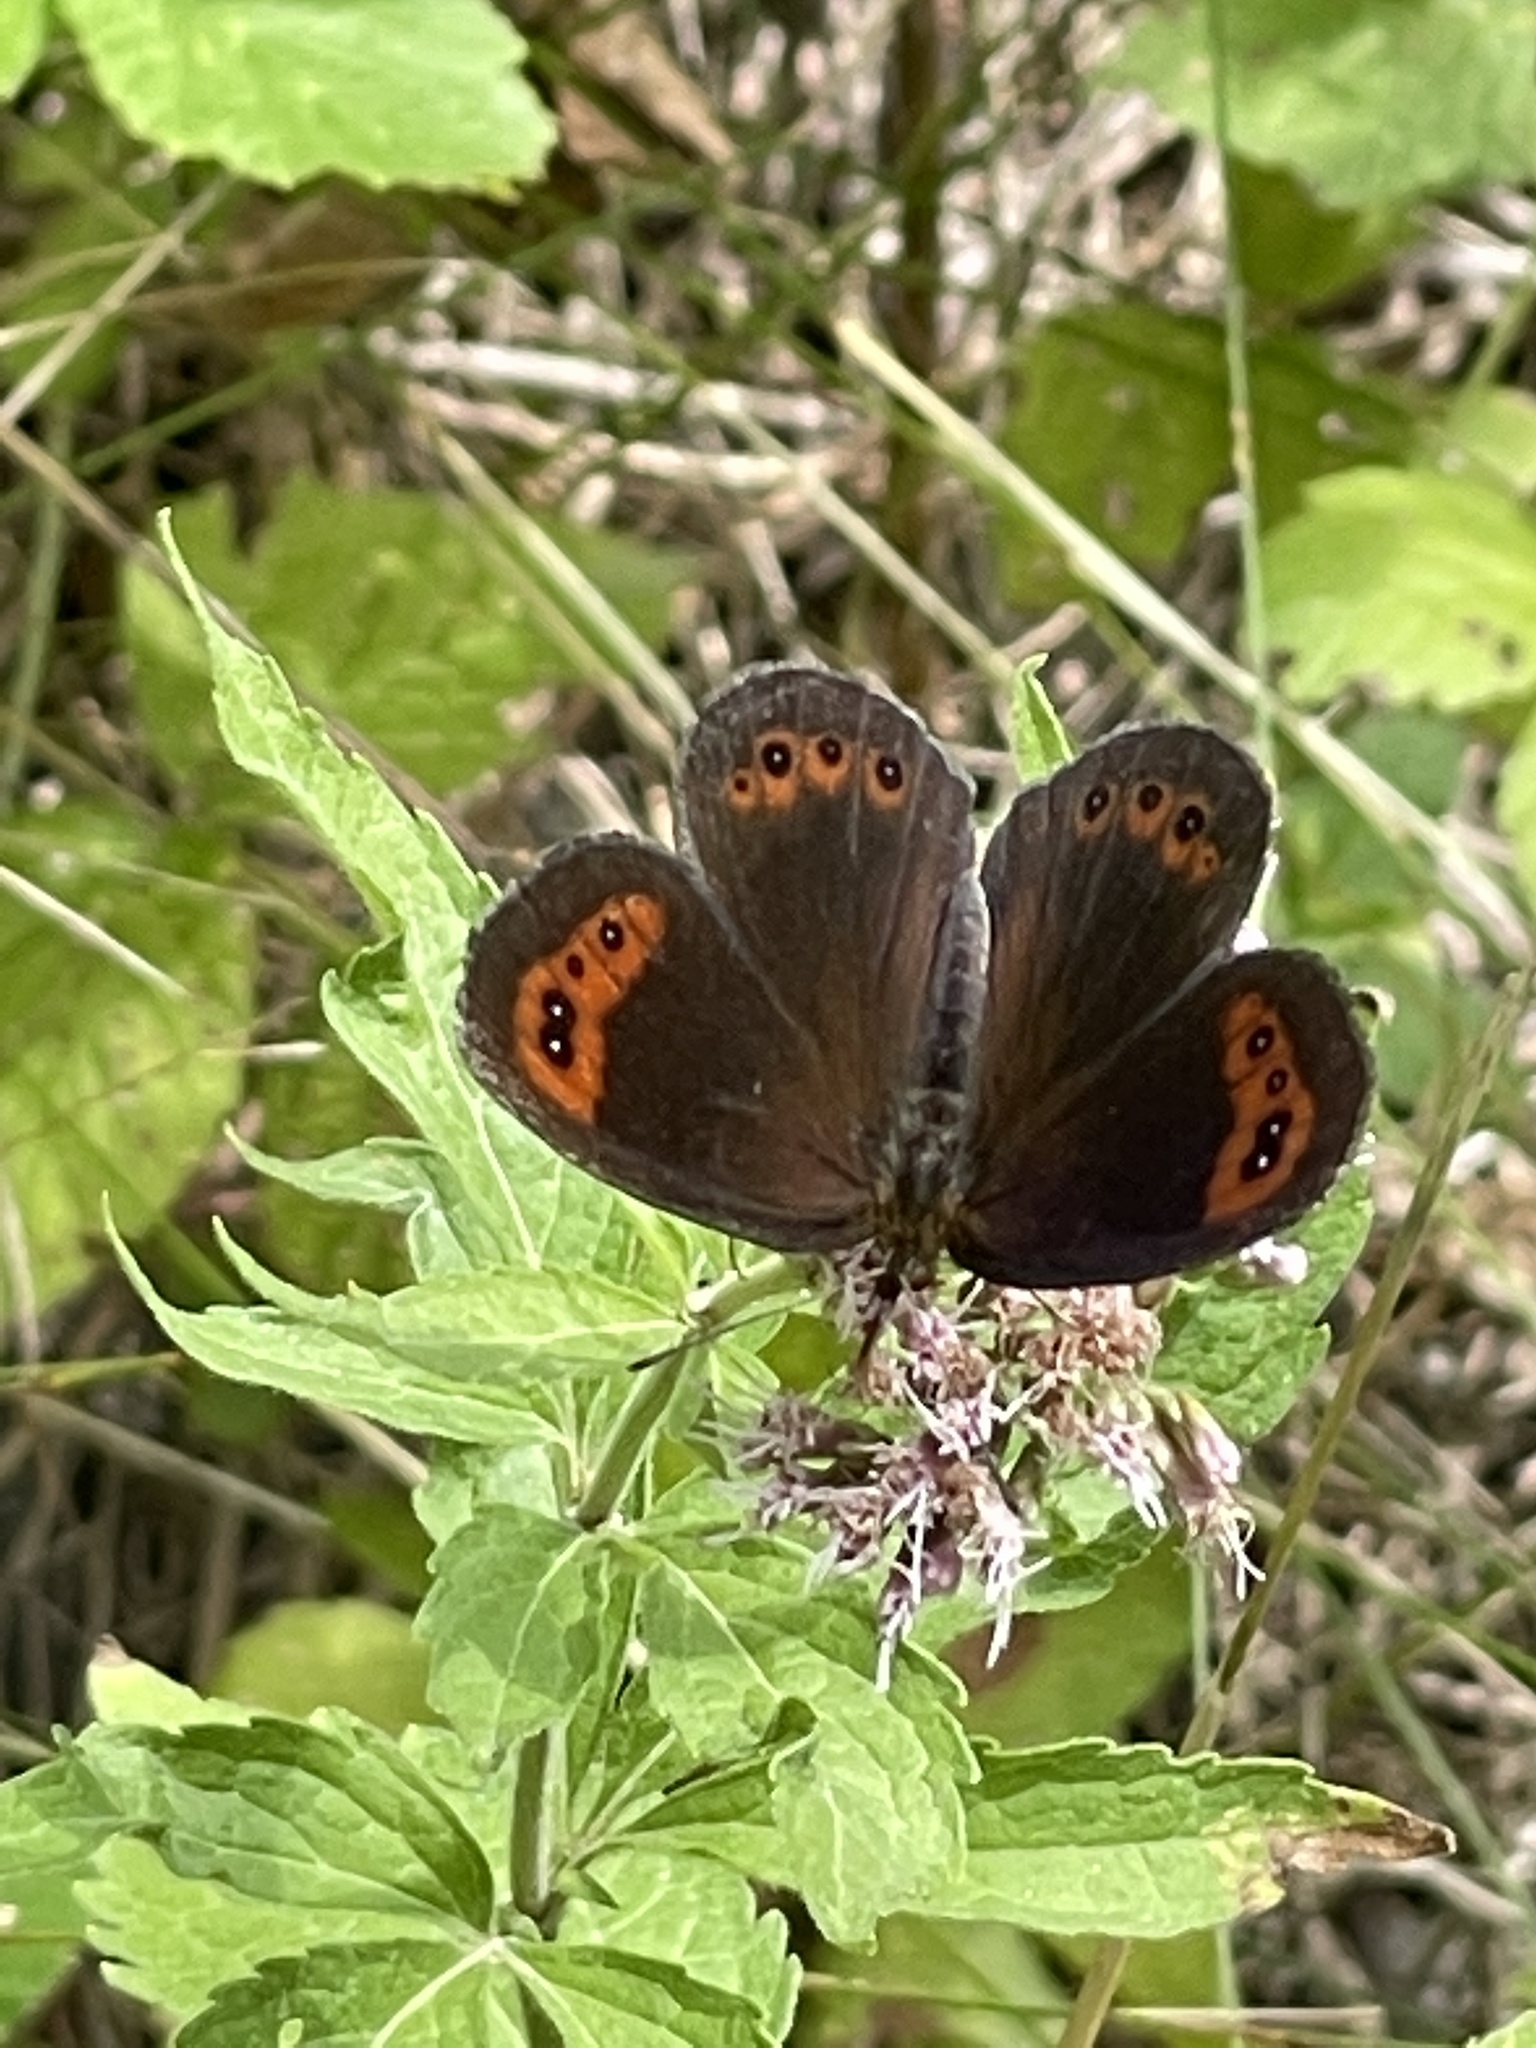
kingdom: Animalia
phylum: Arthropoda
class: Insecta
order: Lepidoptera
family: Nymphalidae
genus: Erebia
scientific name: Erebia neoridas
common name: Autumn ringlet
